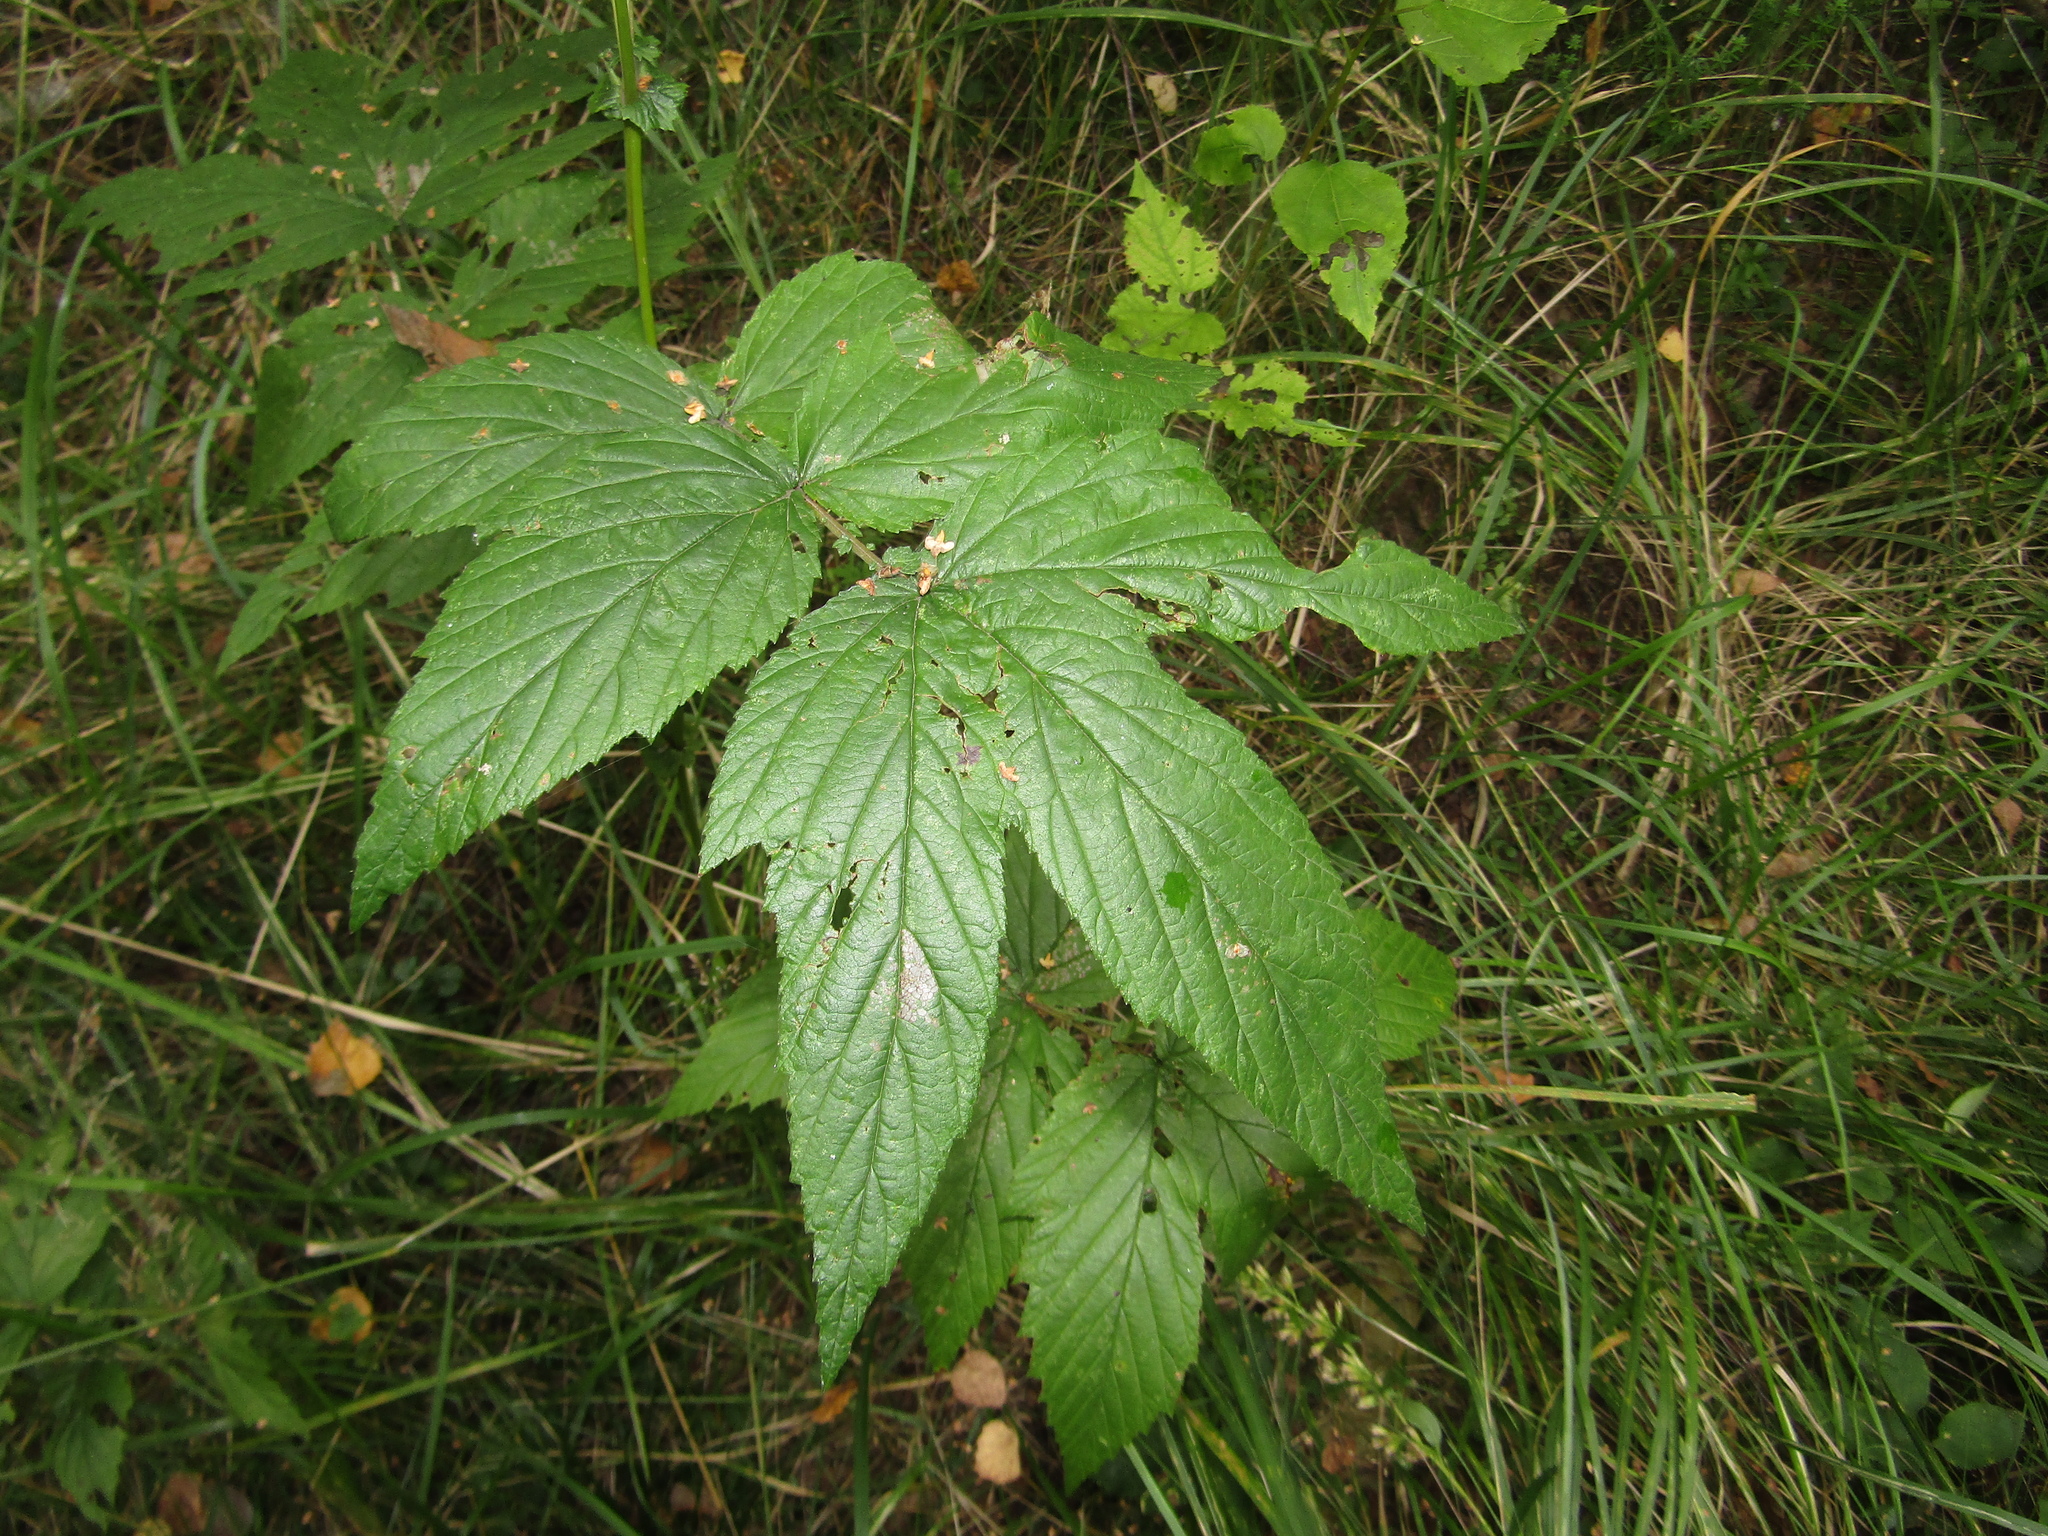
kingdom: Plantae
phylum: Tracheophyta
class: Magnoliopsida
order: Rosales
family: Rosaceae
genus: Filipendula
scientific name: Filipendula ulmaria
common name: Meadowsweet
